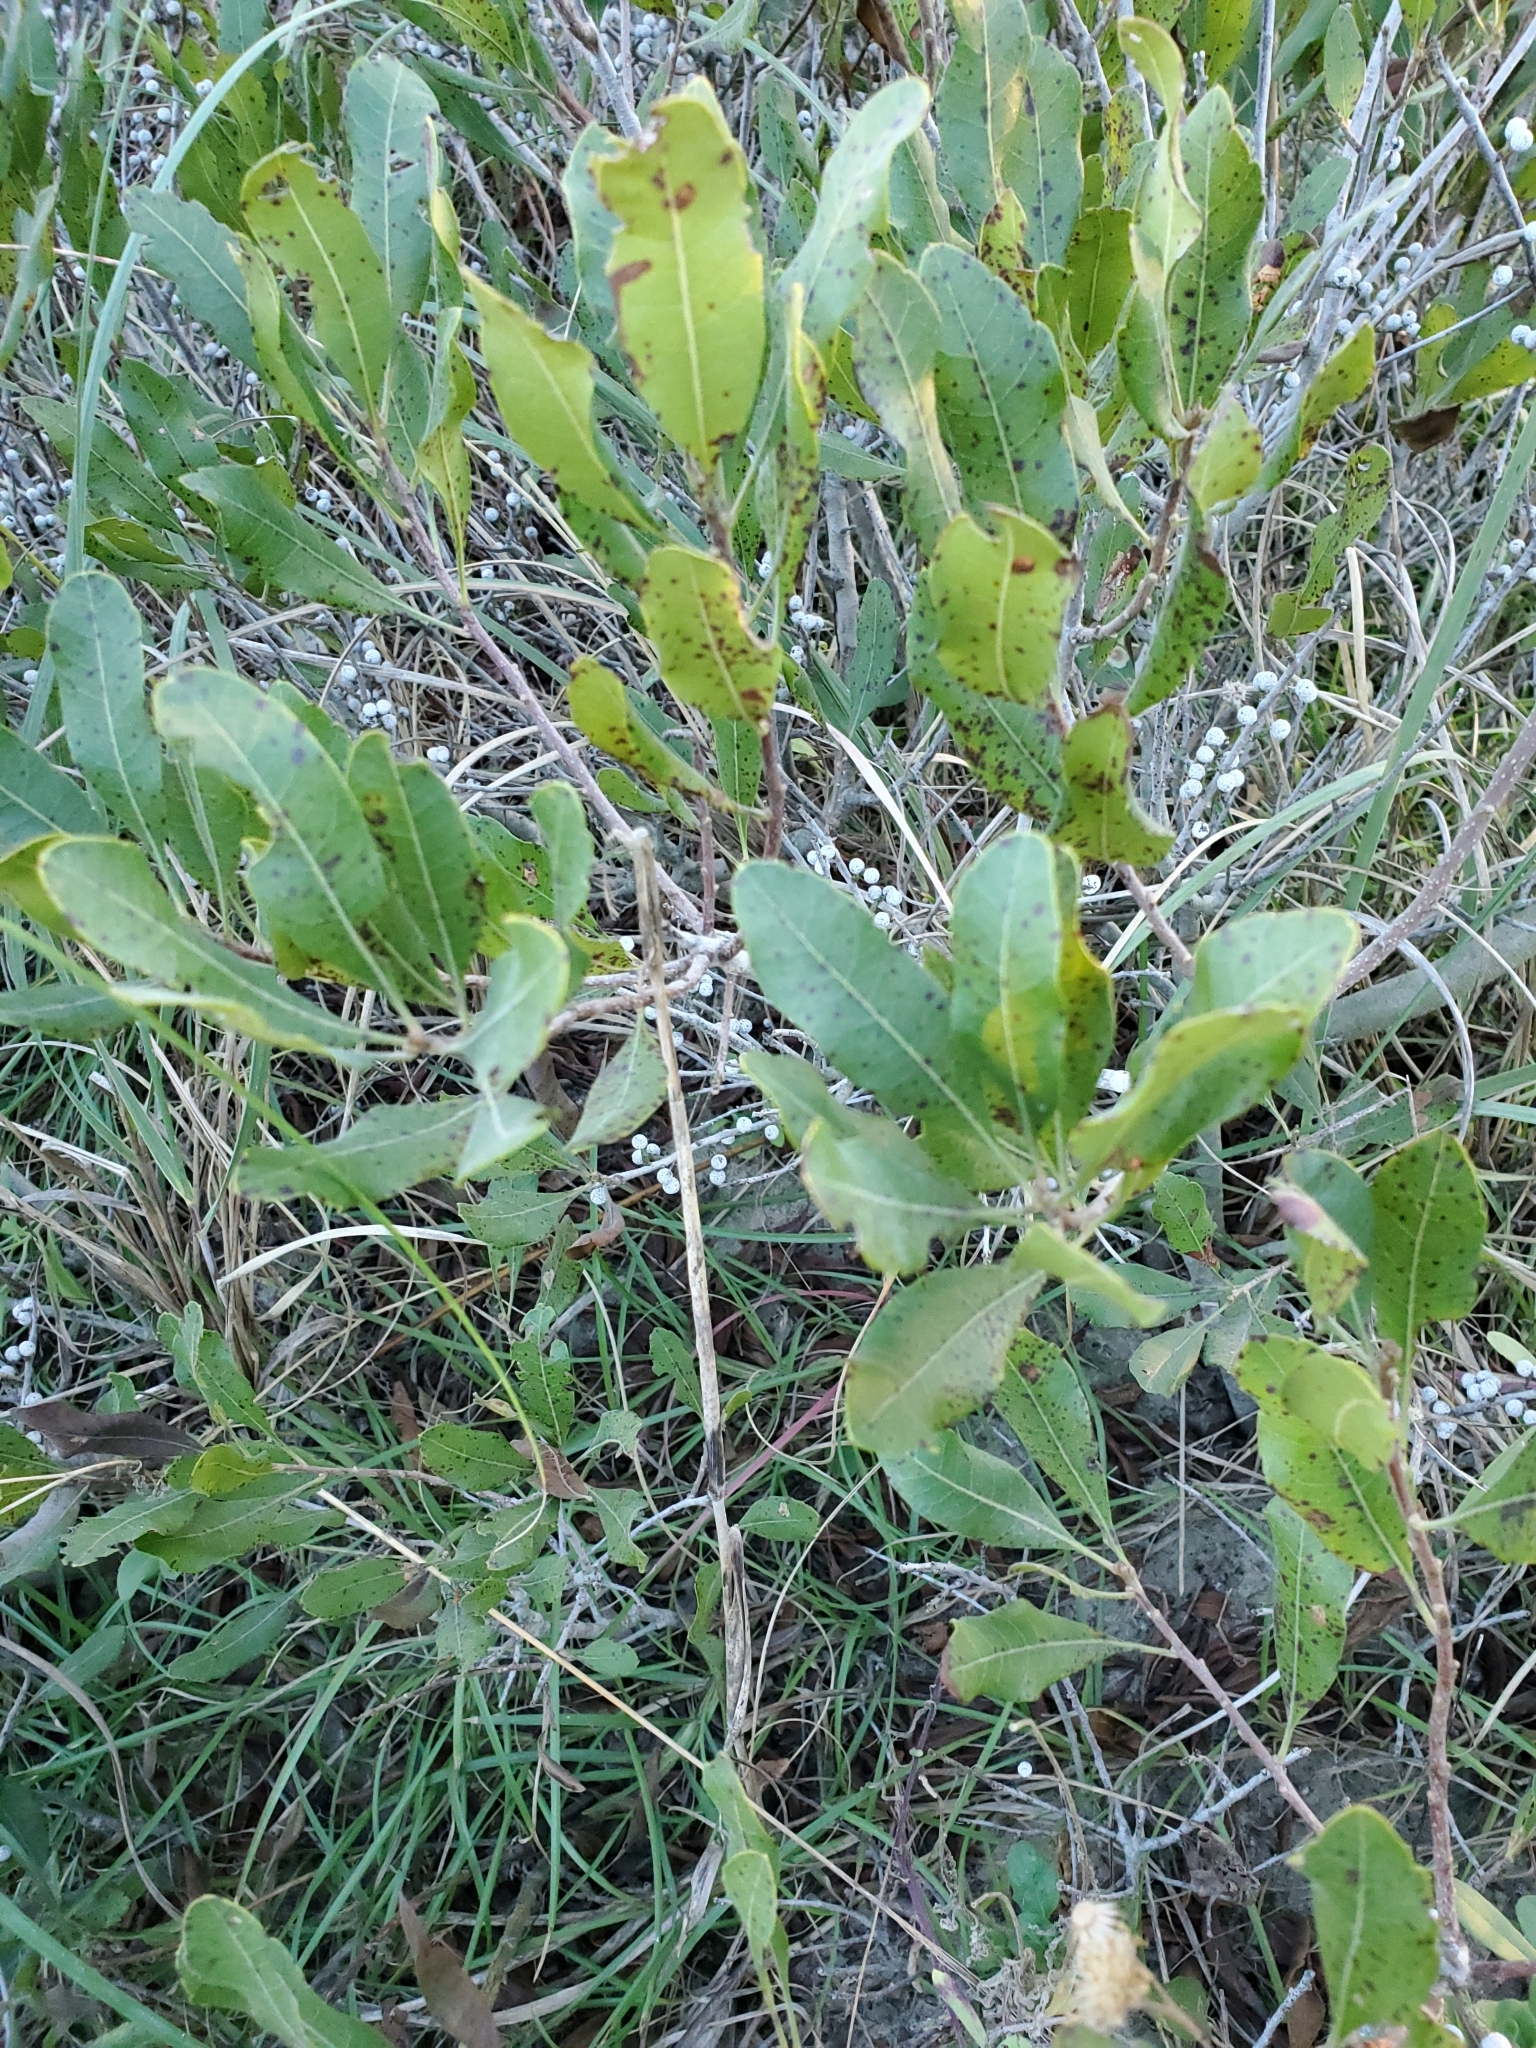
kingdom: Plantae
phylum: Tracheophyta
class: Magnoliopsida
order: Fagales
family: Myricaceae
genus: Morella
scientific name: Morella pensylvanica
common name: Northern bayberry
